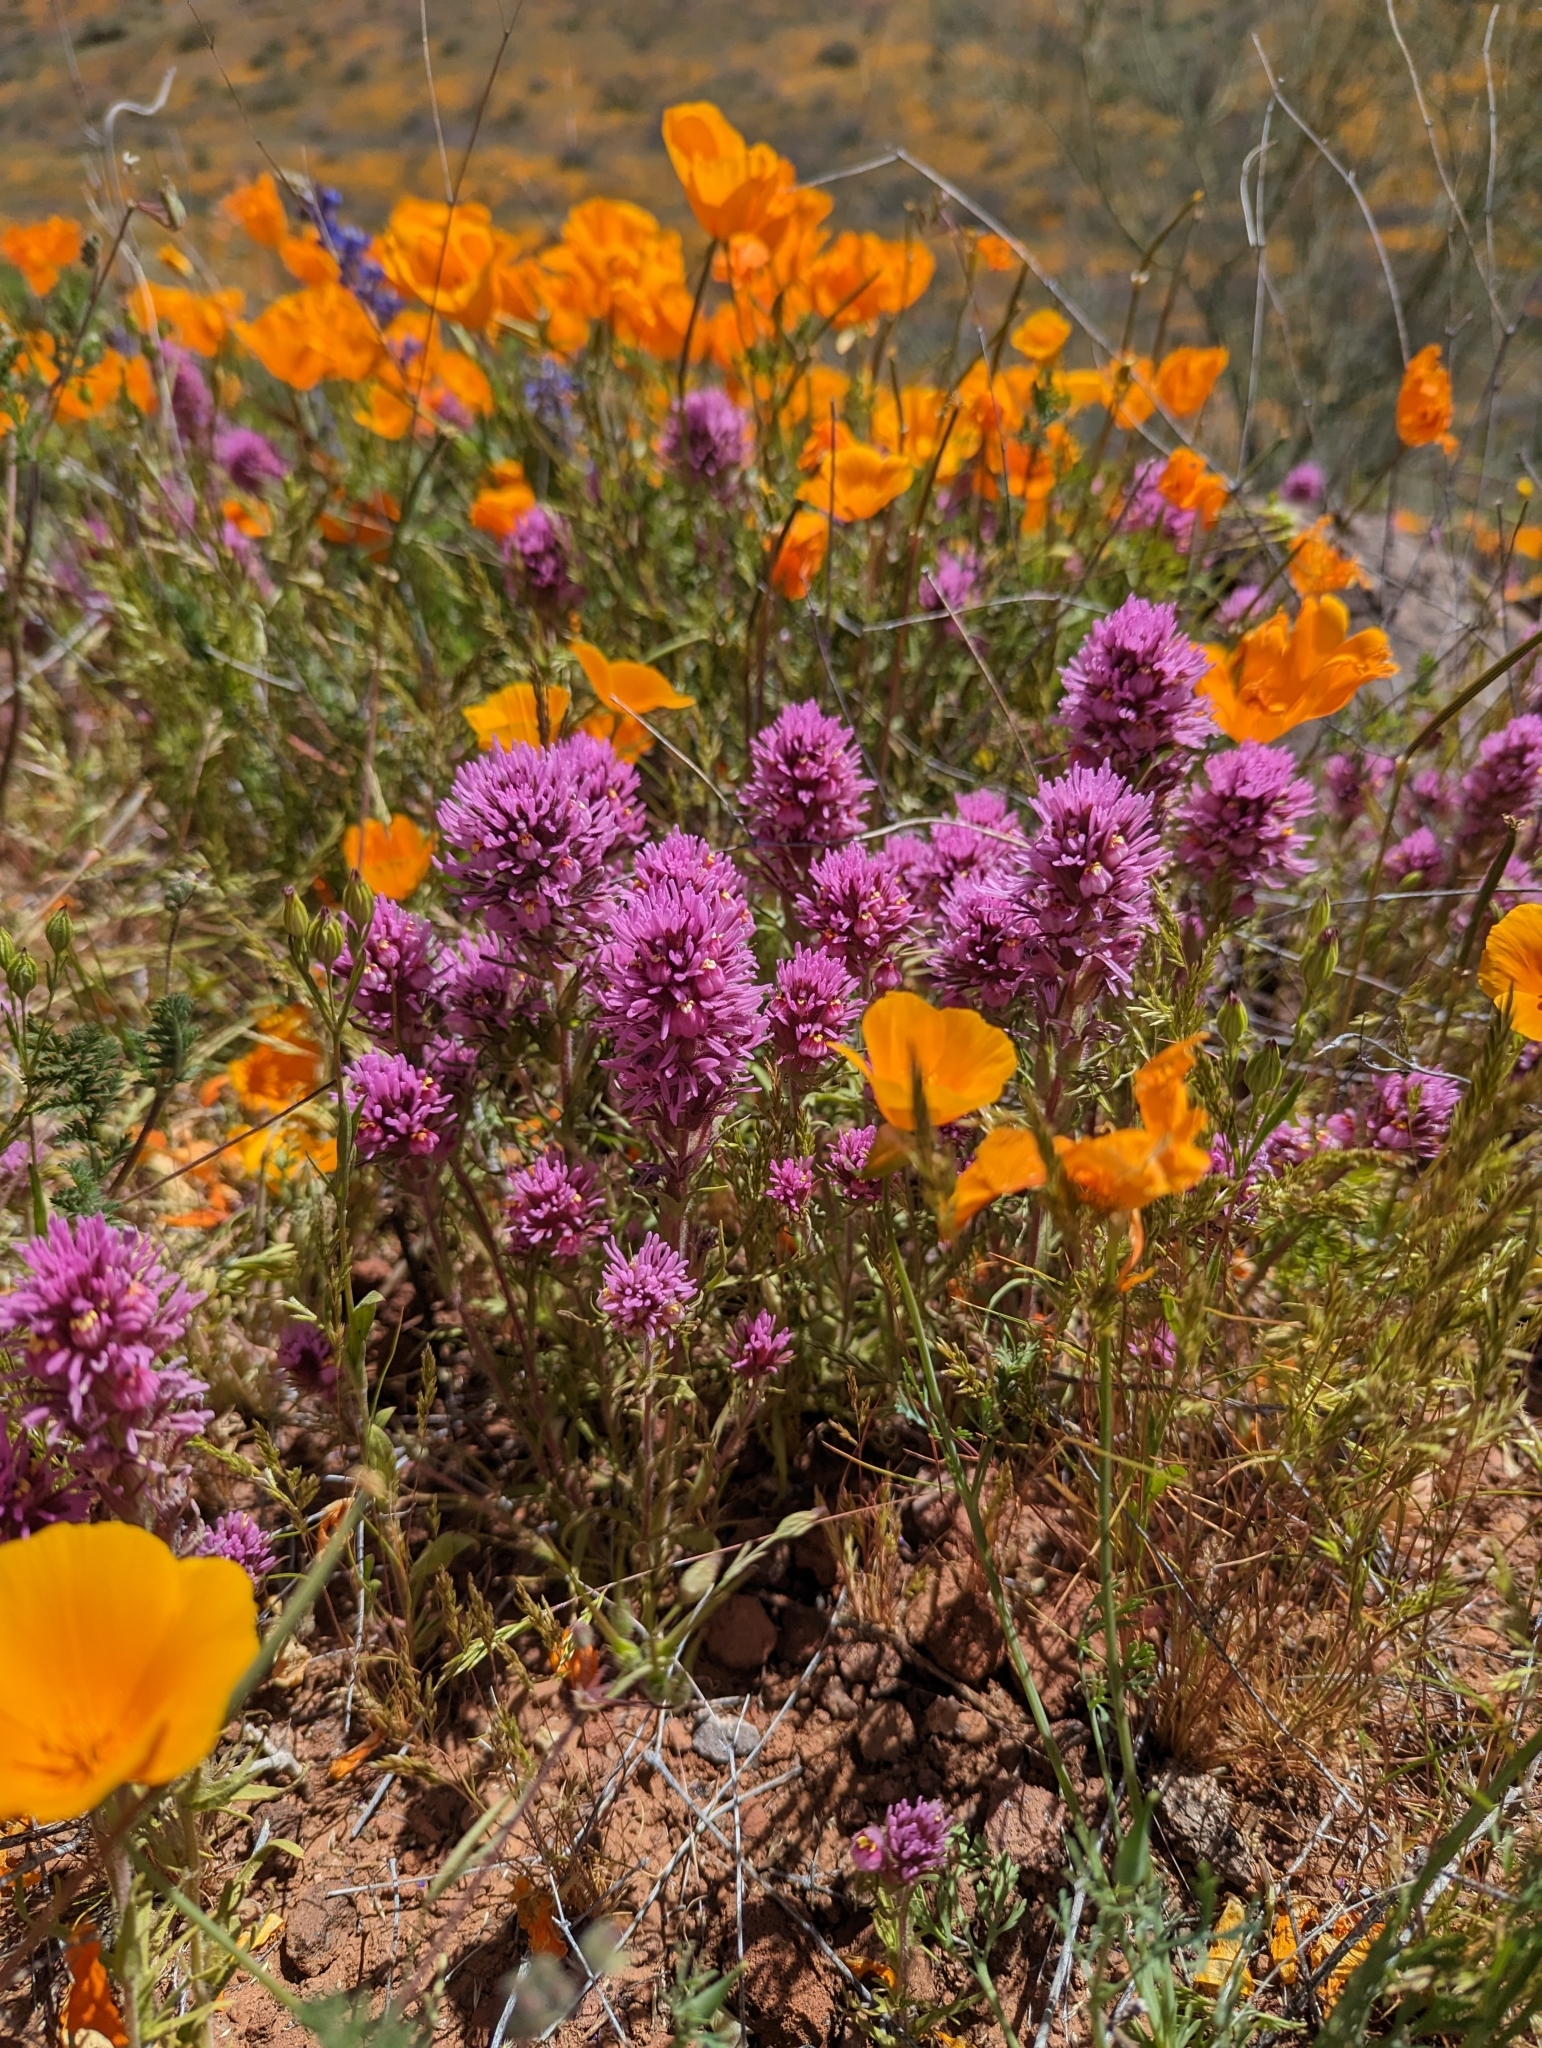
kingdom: Plantae
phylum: Tracheophyta
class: Magnoliopsida
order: Lamiales
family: Orobanchaceae
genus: Castilleja
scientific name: Castilleja exserta
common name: Purple owl-clover
